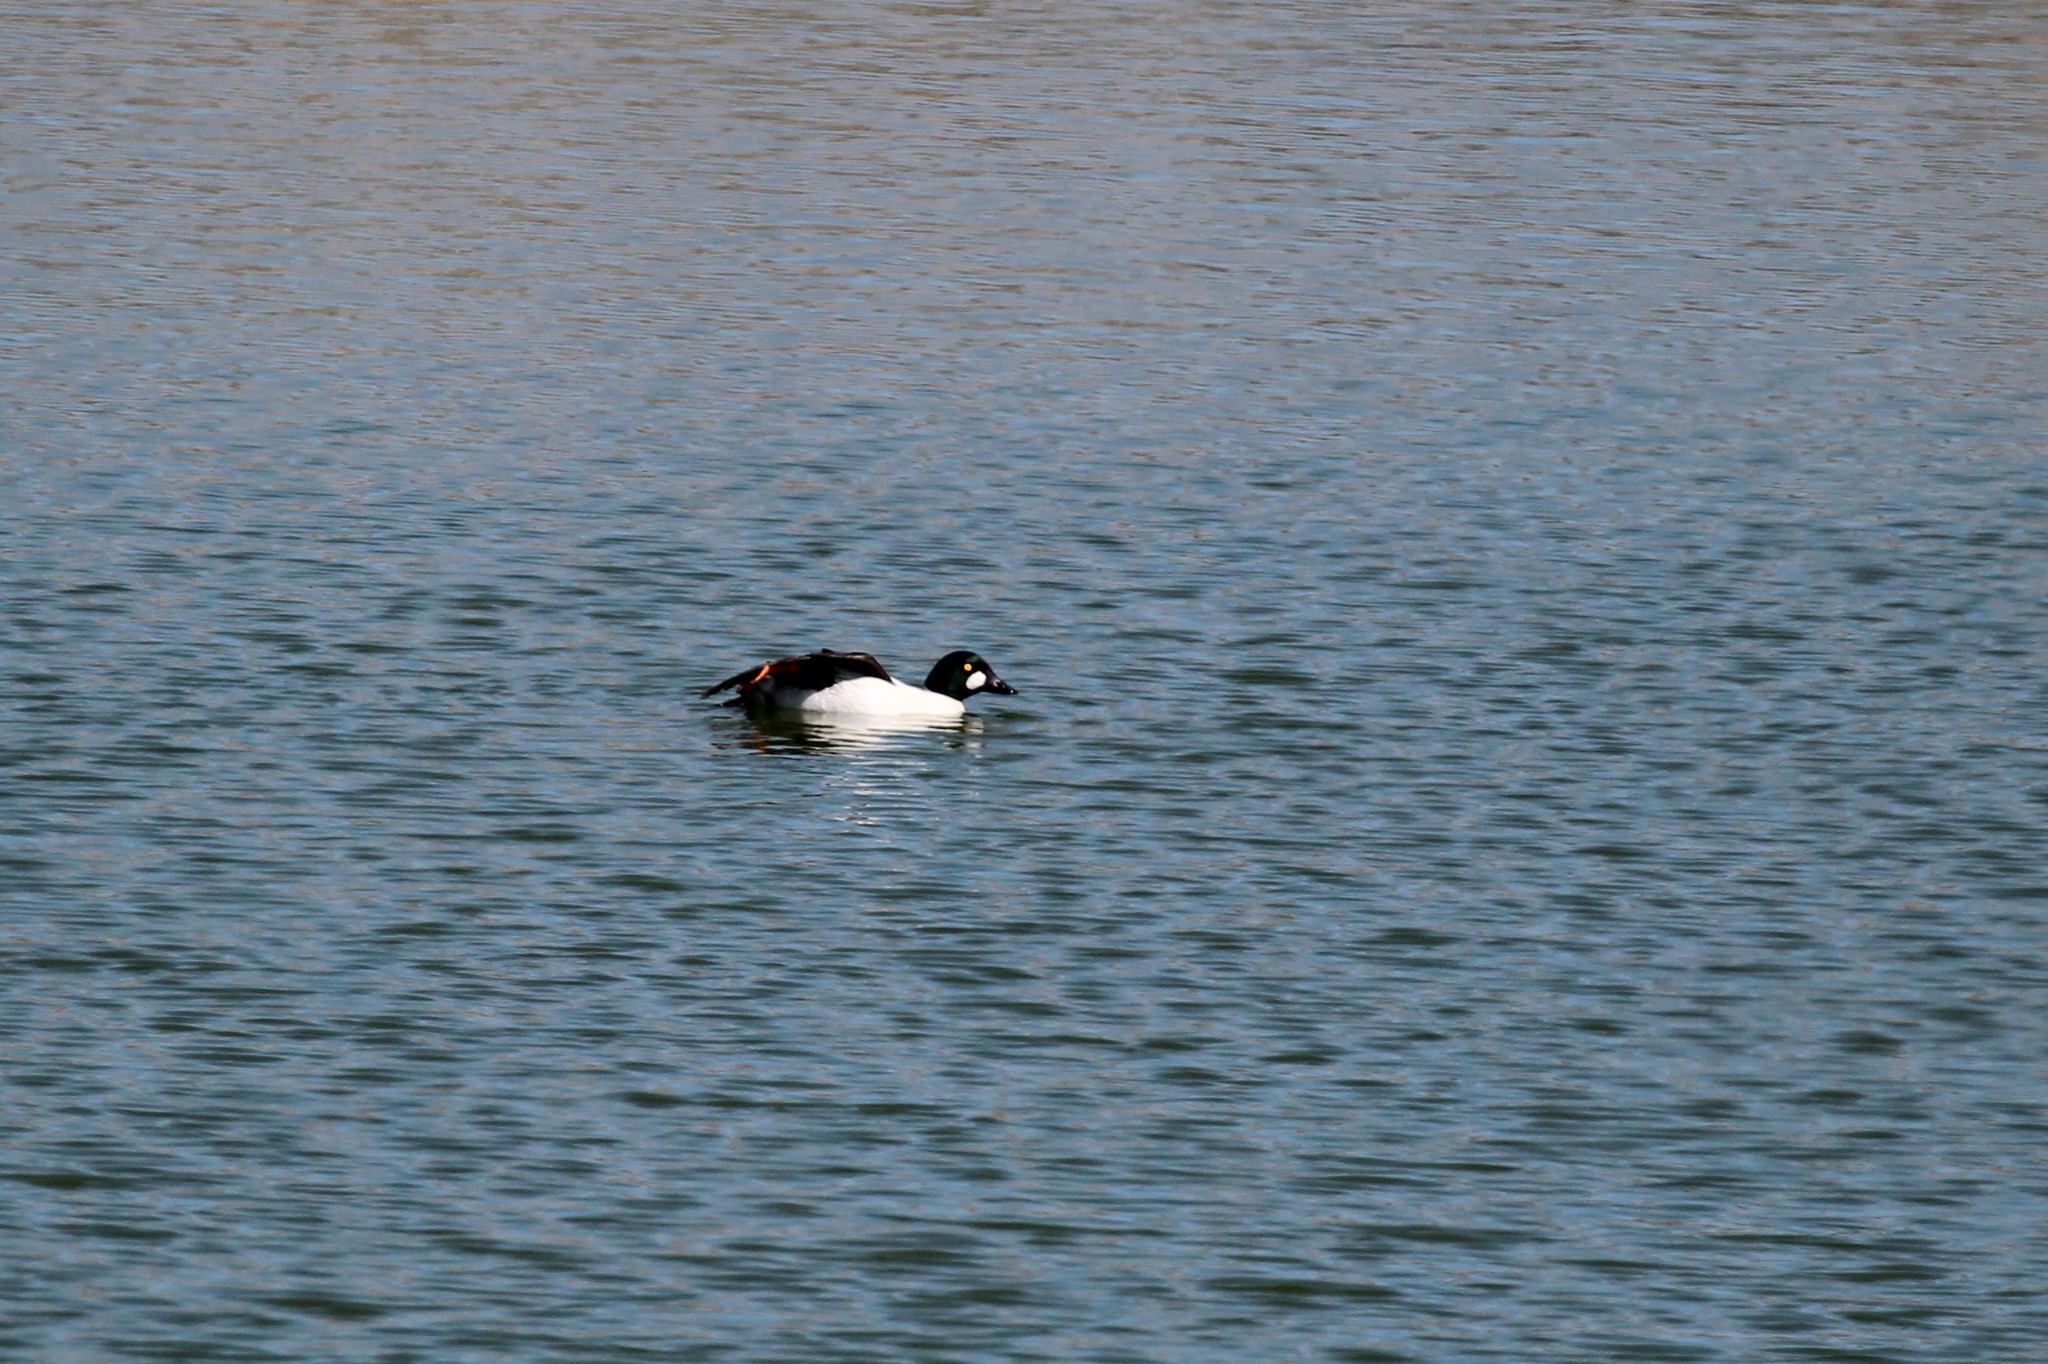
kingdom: Animalia
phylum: Chordata
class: Aves
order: Anseriformes
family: Anatidae
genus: Bucephala
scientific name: Bucephala clangula
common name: Common goldeneye
